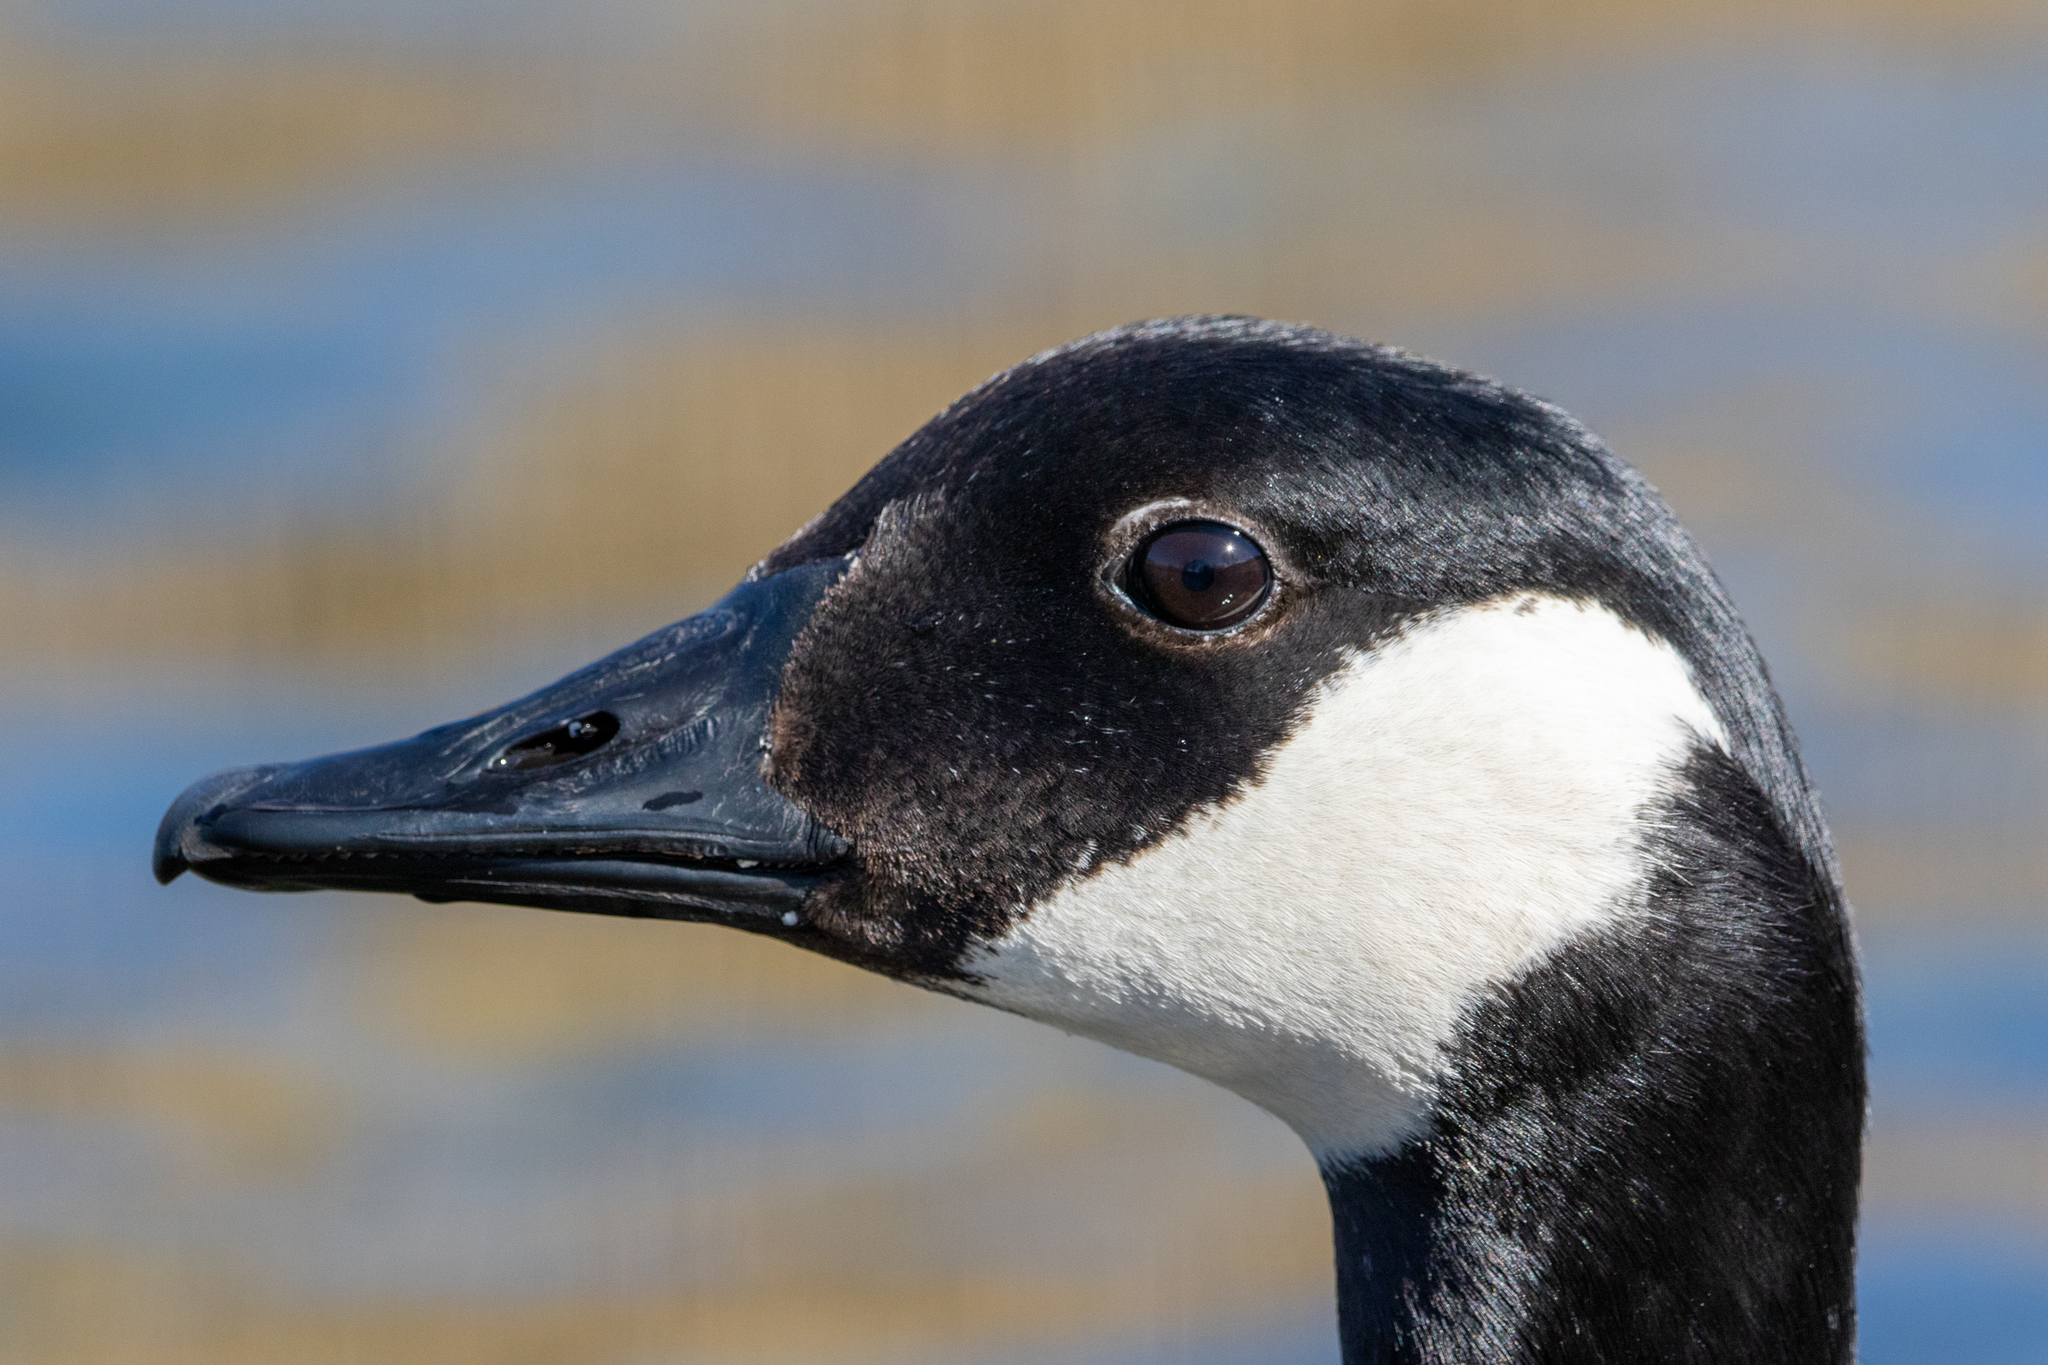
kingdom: Animalia
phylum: Chordata
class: Aves
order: Anseriformes
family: Anatidae
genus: Branta
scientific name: Branta canadensis
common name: Canada goose
